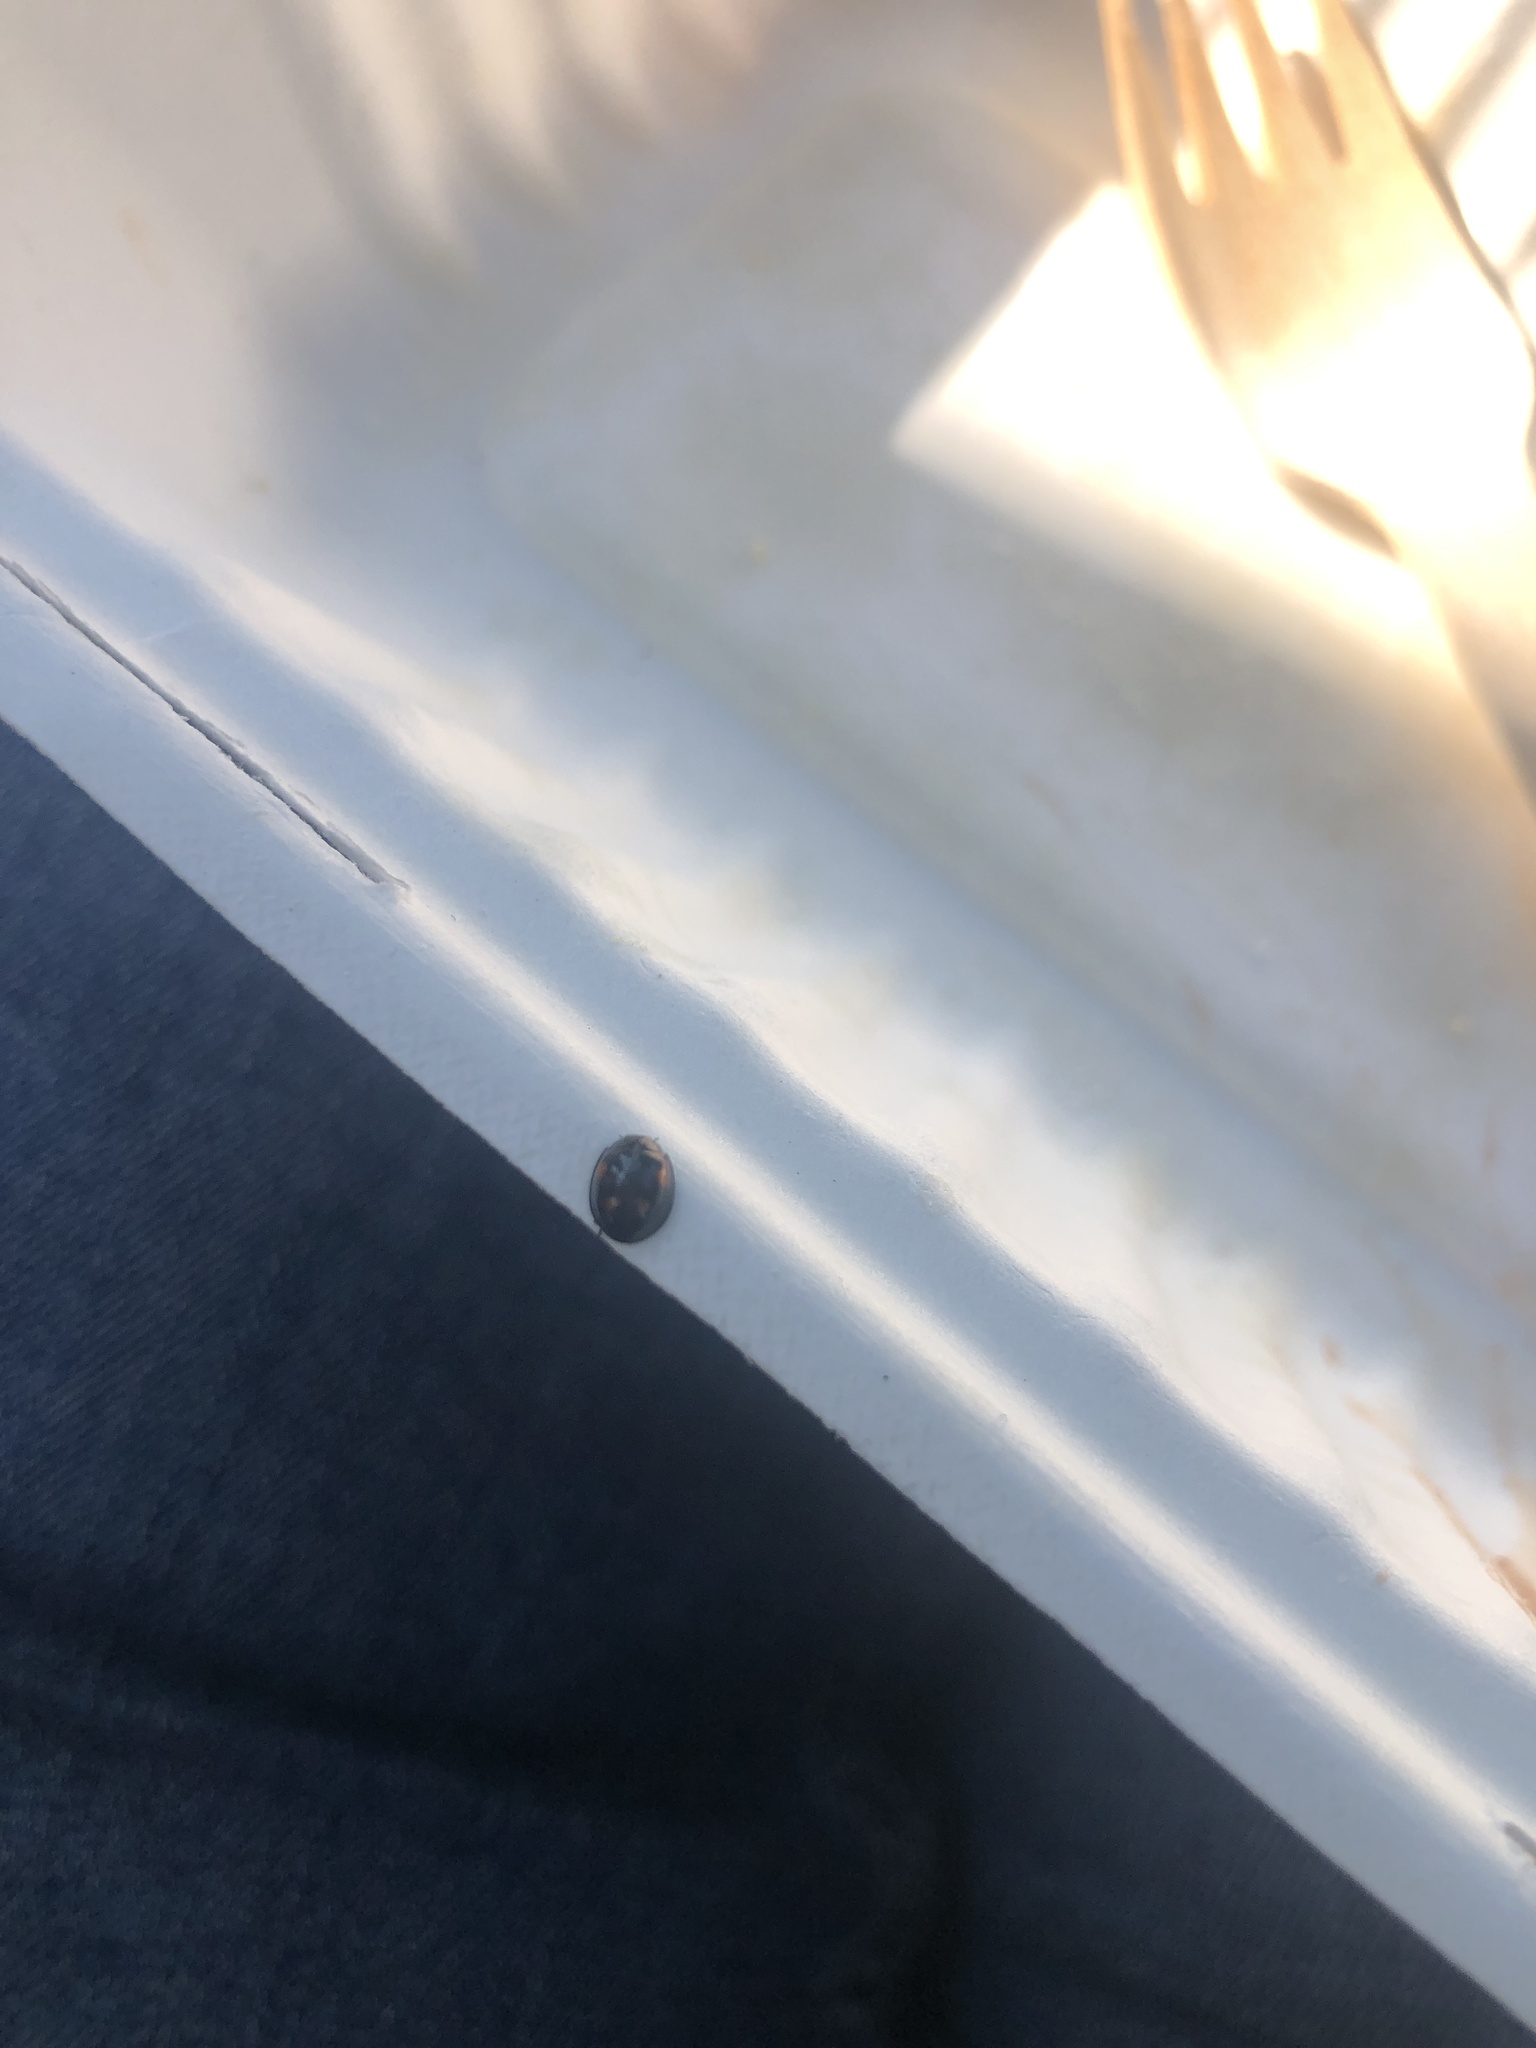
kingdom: Animalia
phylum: Arthropoda
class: Insecta
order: Coleoptera
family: Coccinellidae
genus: Brumus
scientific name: Brumus quadripustulatus
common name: Ladybird beetle
